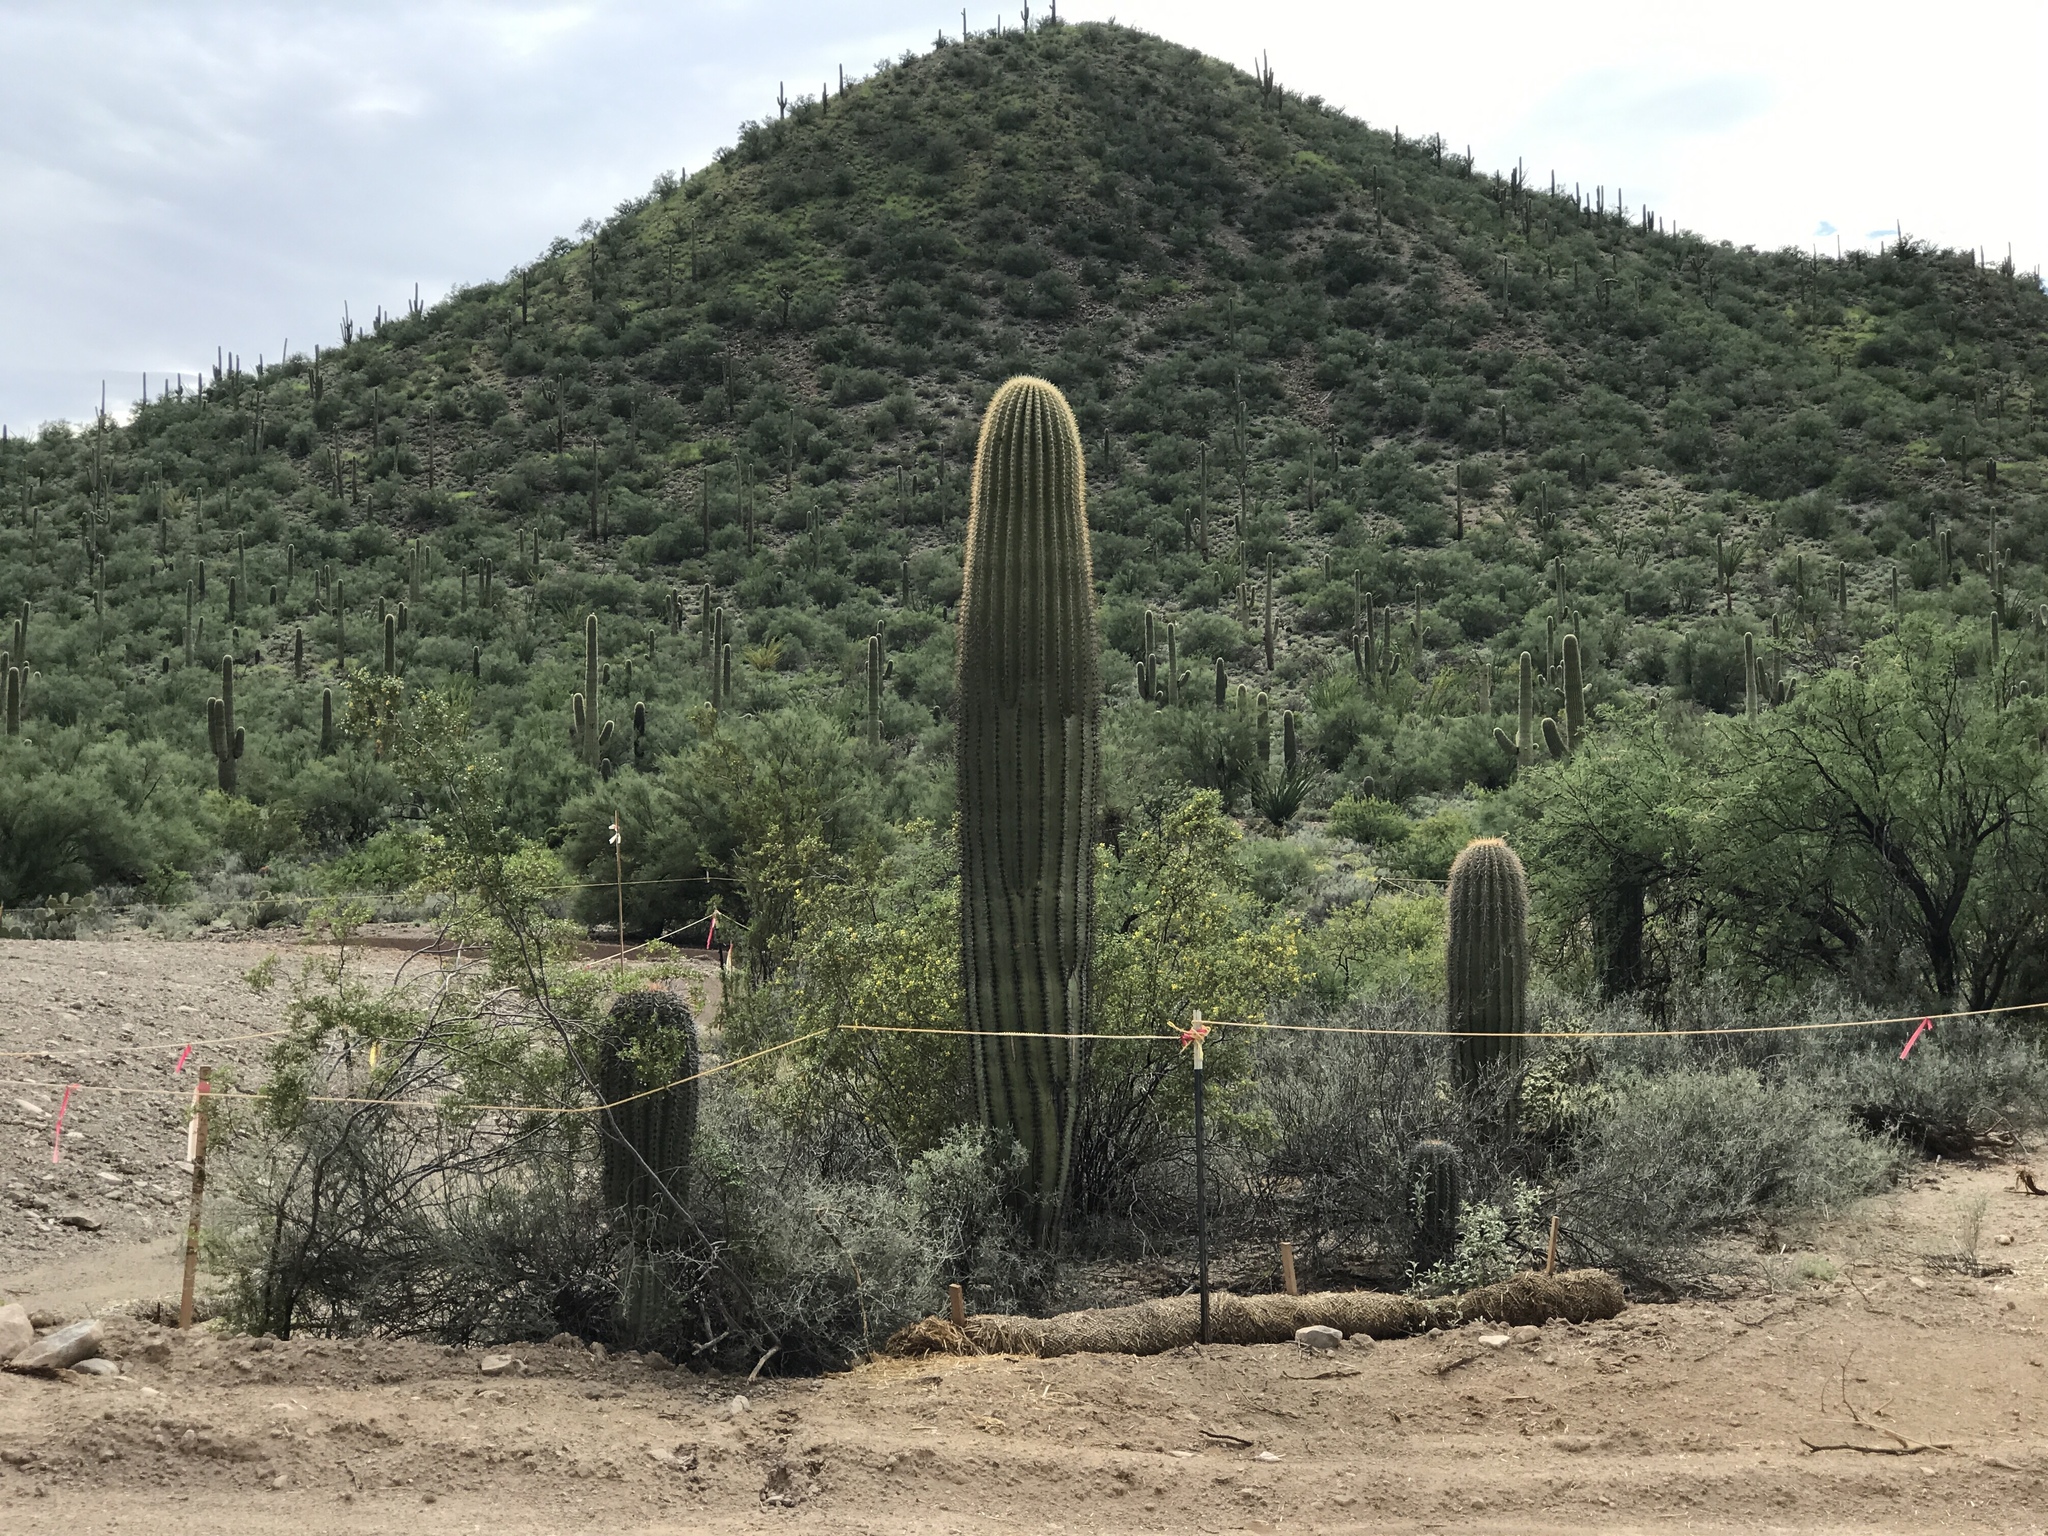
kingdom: Plantae
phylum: Tracheophyta
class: Magnoliopsida
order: Caryophyllales
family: Cactaceae
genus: Carnegiea
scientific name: Carnegiea gigantea
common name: Saguaro
